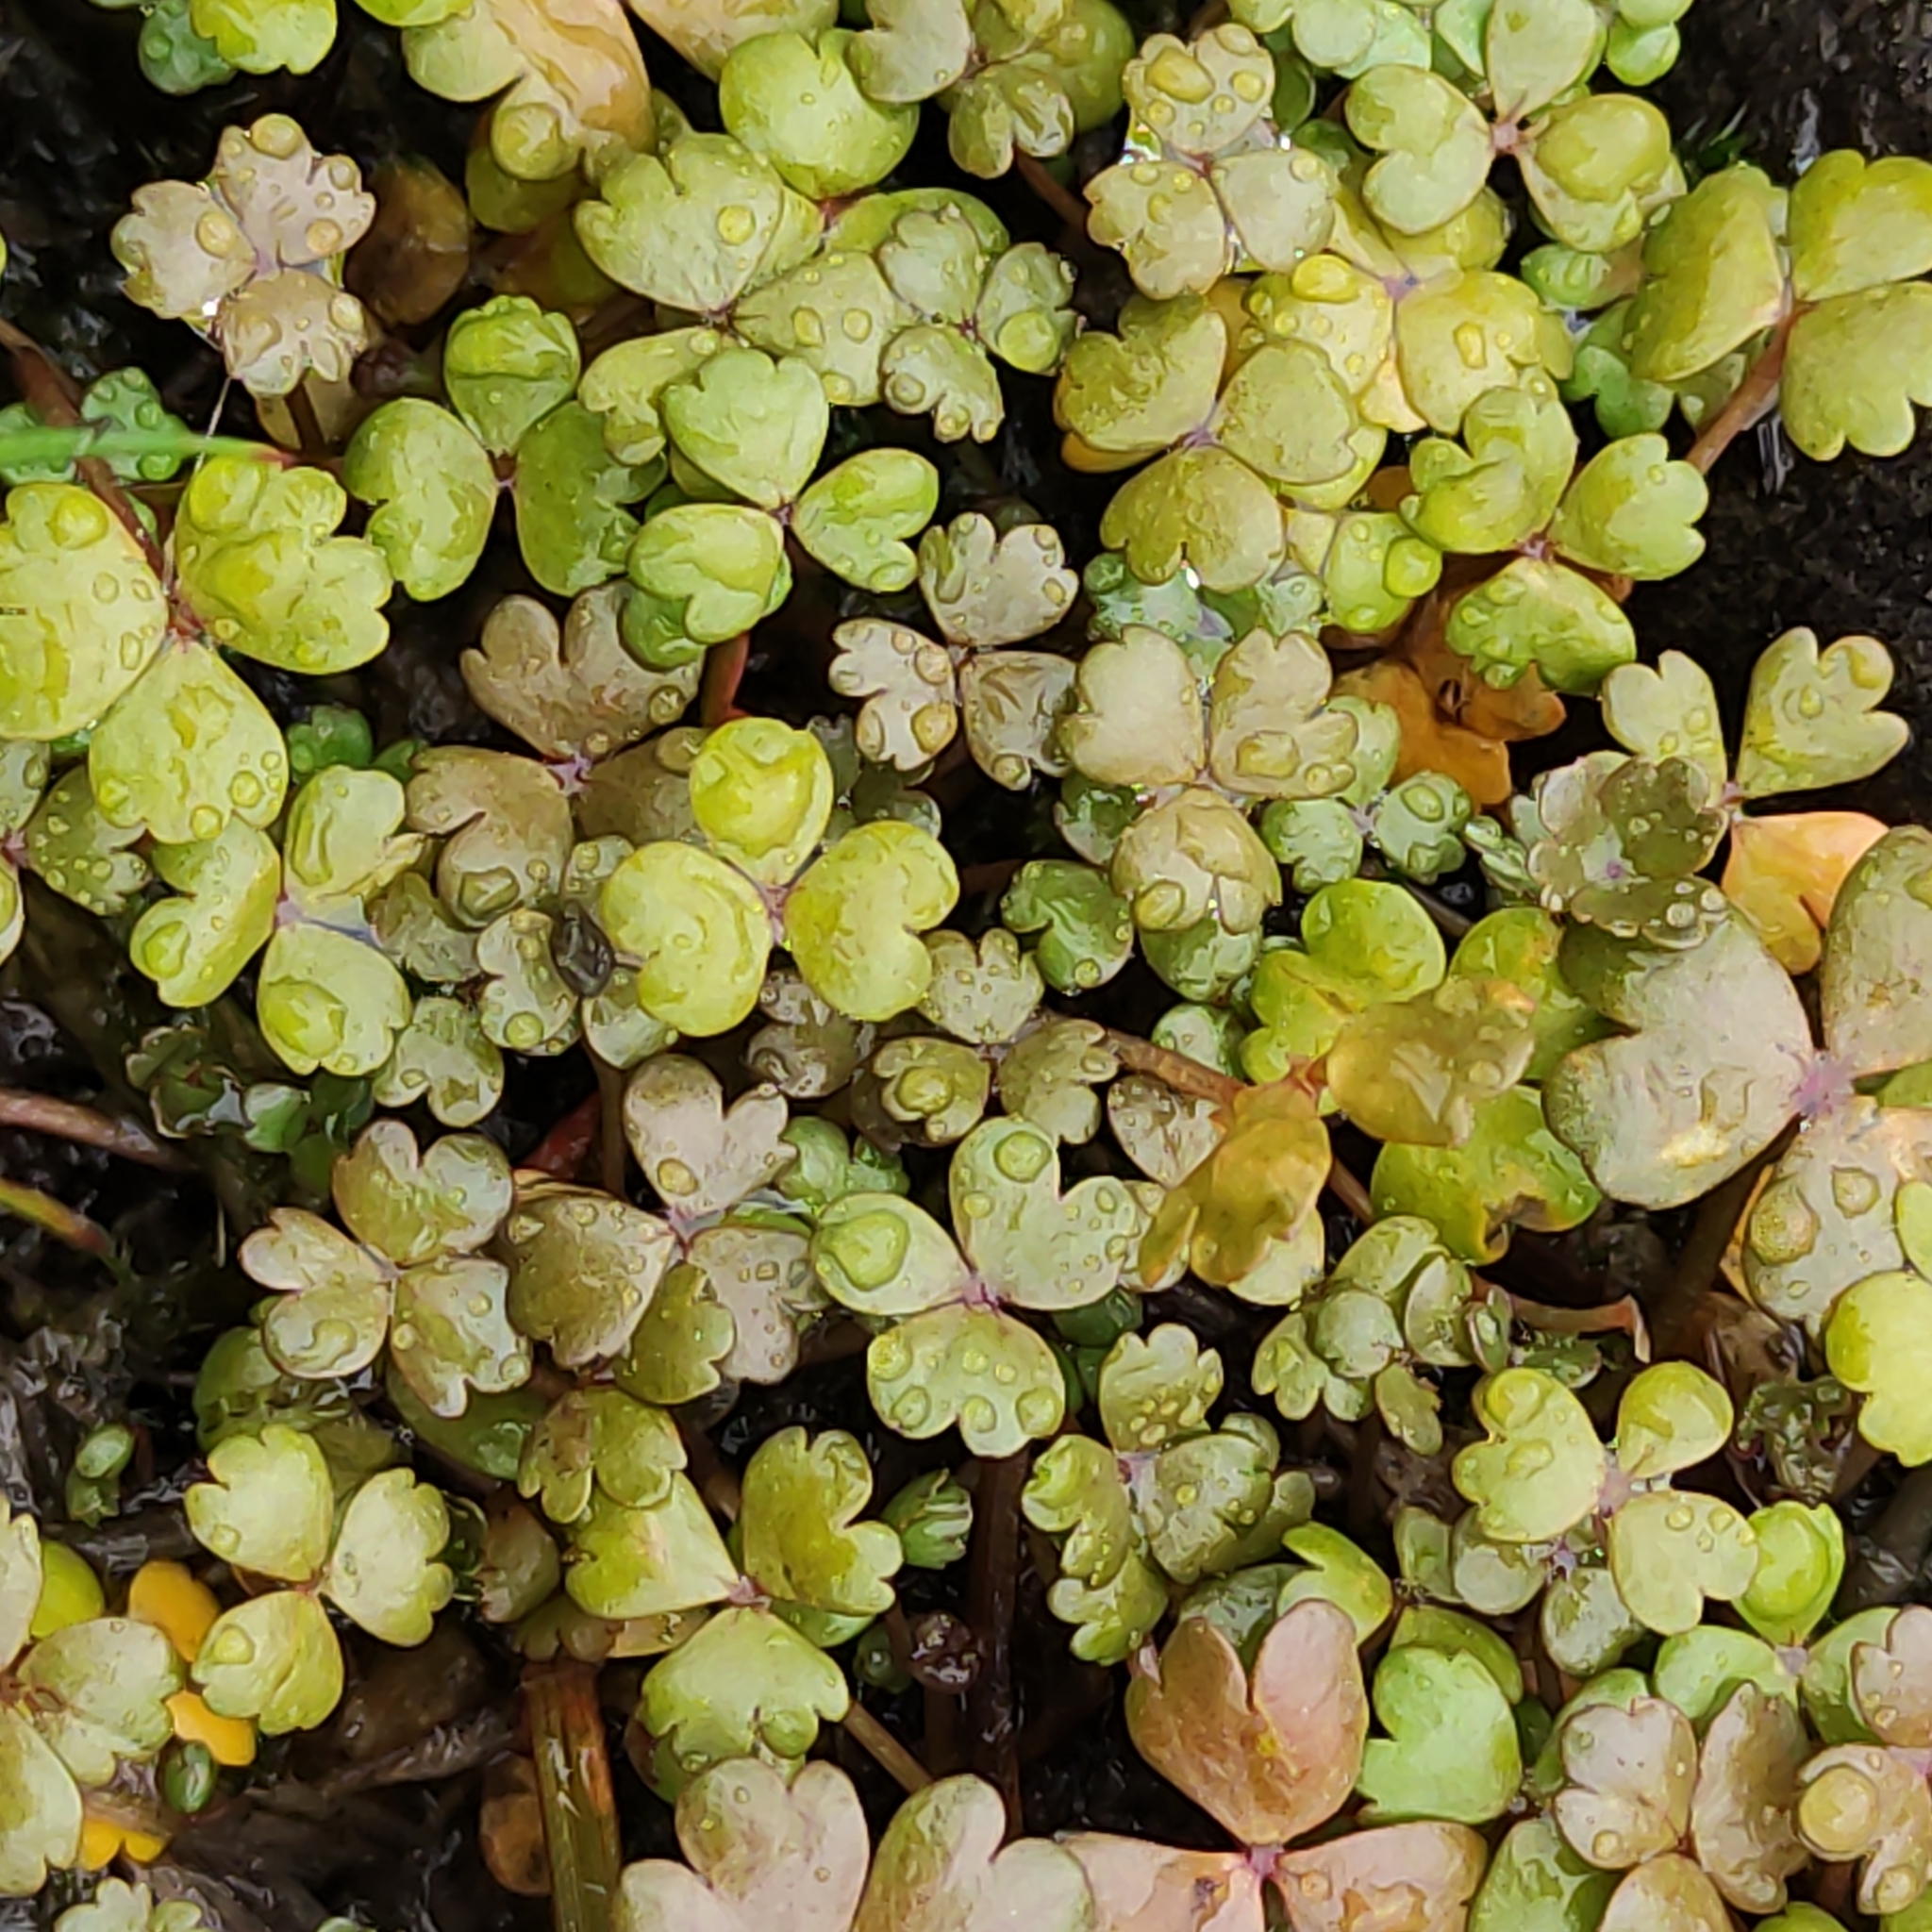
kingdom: Plantae
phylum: Tracheophyta
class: Magnoliopsida
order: Apiales
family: Araliaceae
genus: Hydrocotyle
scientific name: Hydrocotyle sulcata
